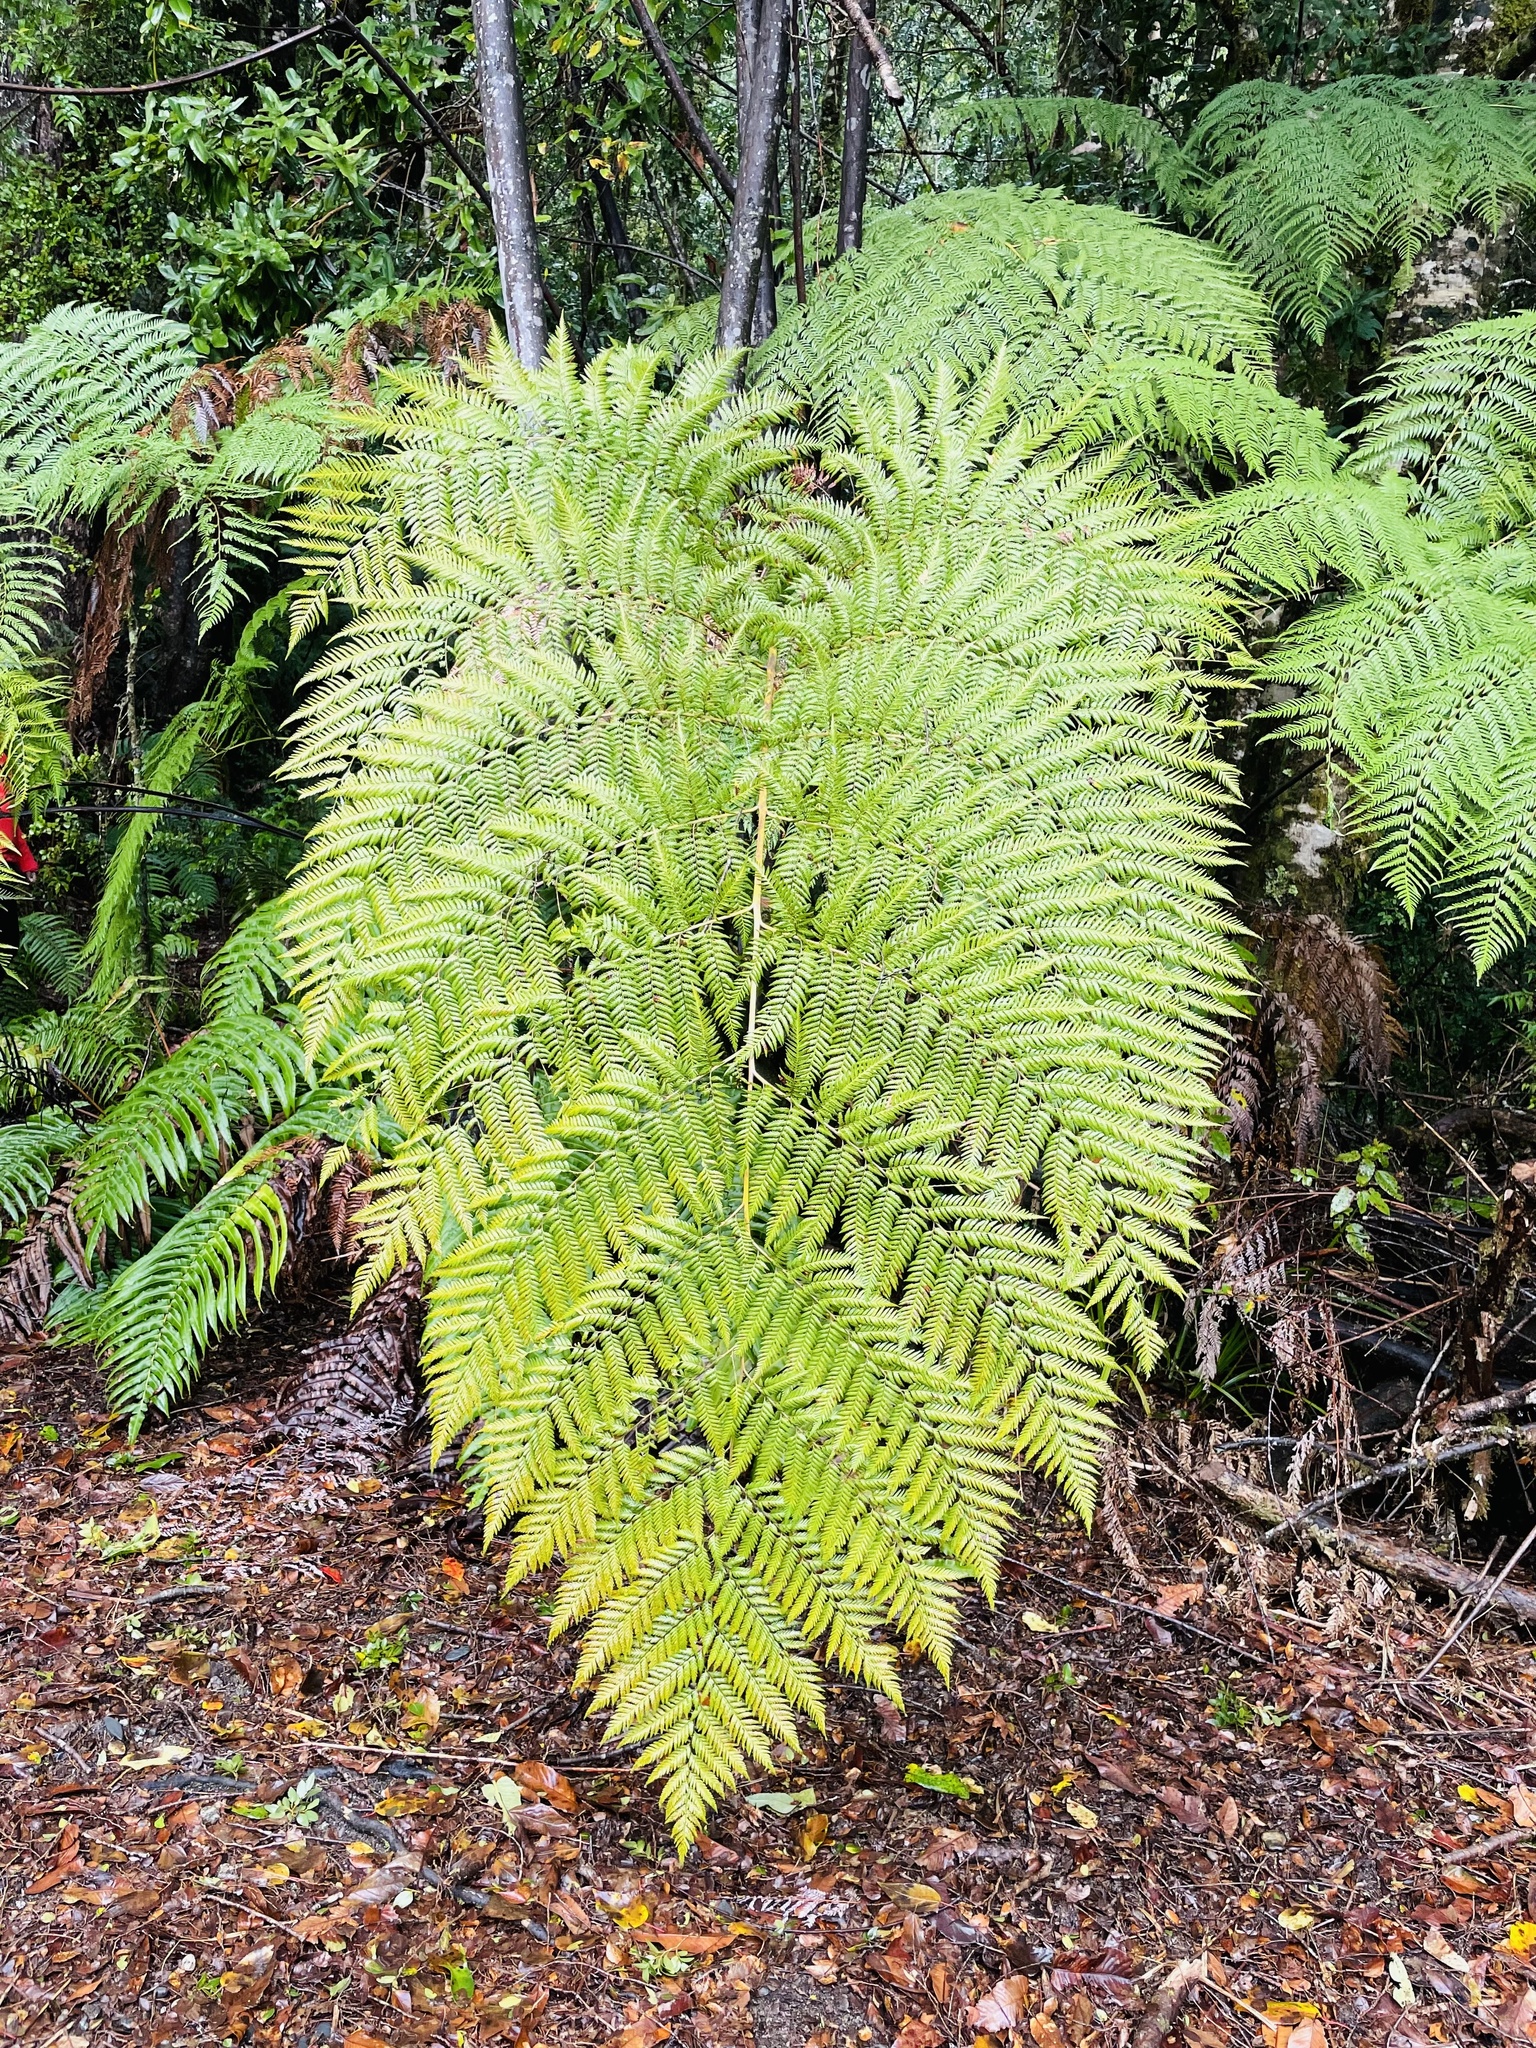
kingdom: Plantae
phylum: Tracheophyta
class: Polypodiopsida
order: Cyatheales
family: Dicksoniaceae
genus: Lophosoria
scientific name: Lophosoria quadripinnata
